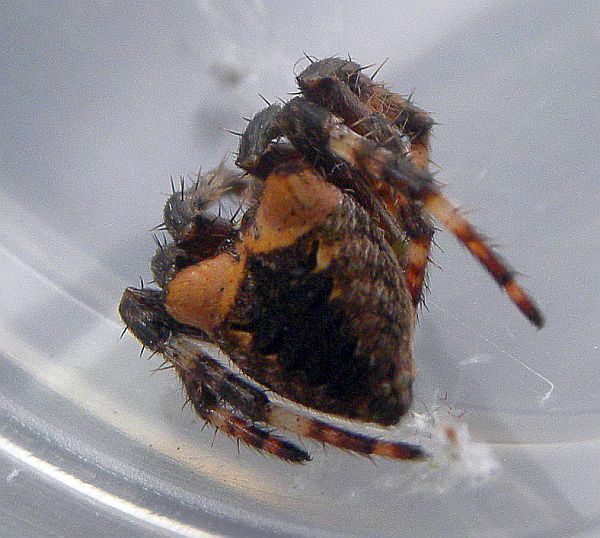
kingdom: Animalia
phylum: Arthropoda
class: Arachnida
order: Araneae
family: Araneidae
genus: Araneus
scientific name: Araneus saevus
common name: Fierce orbweaver
